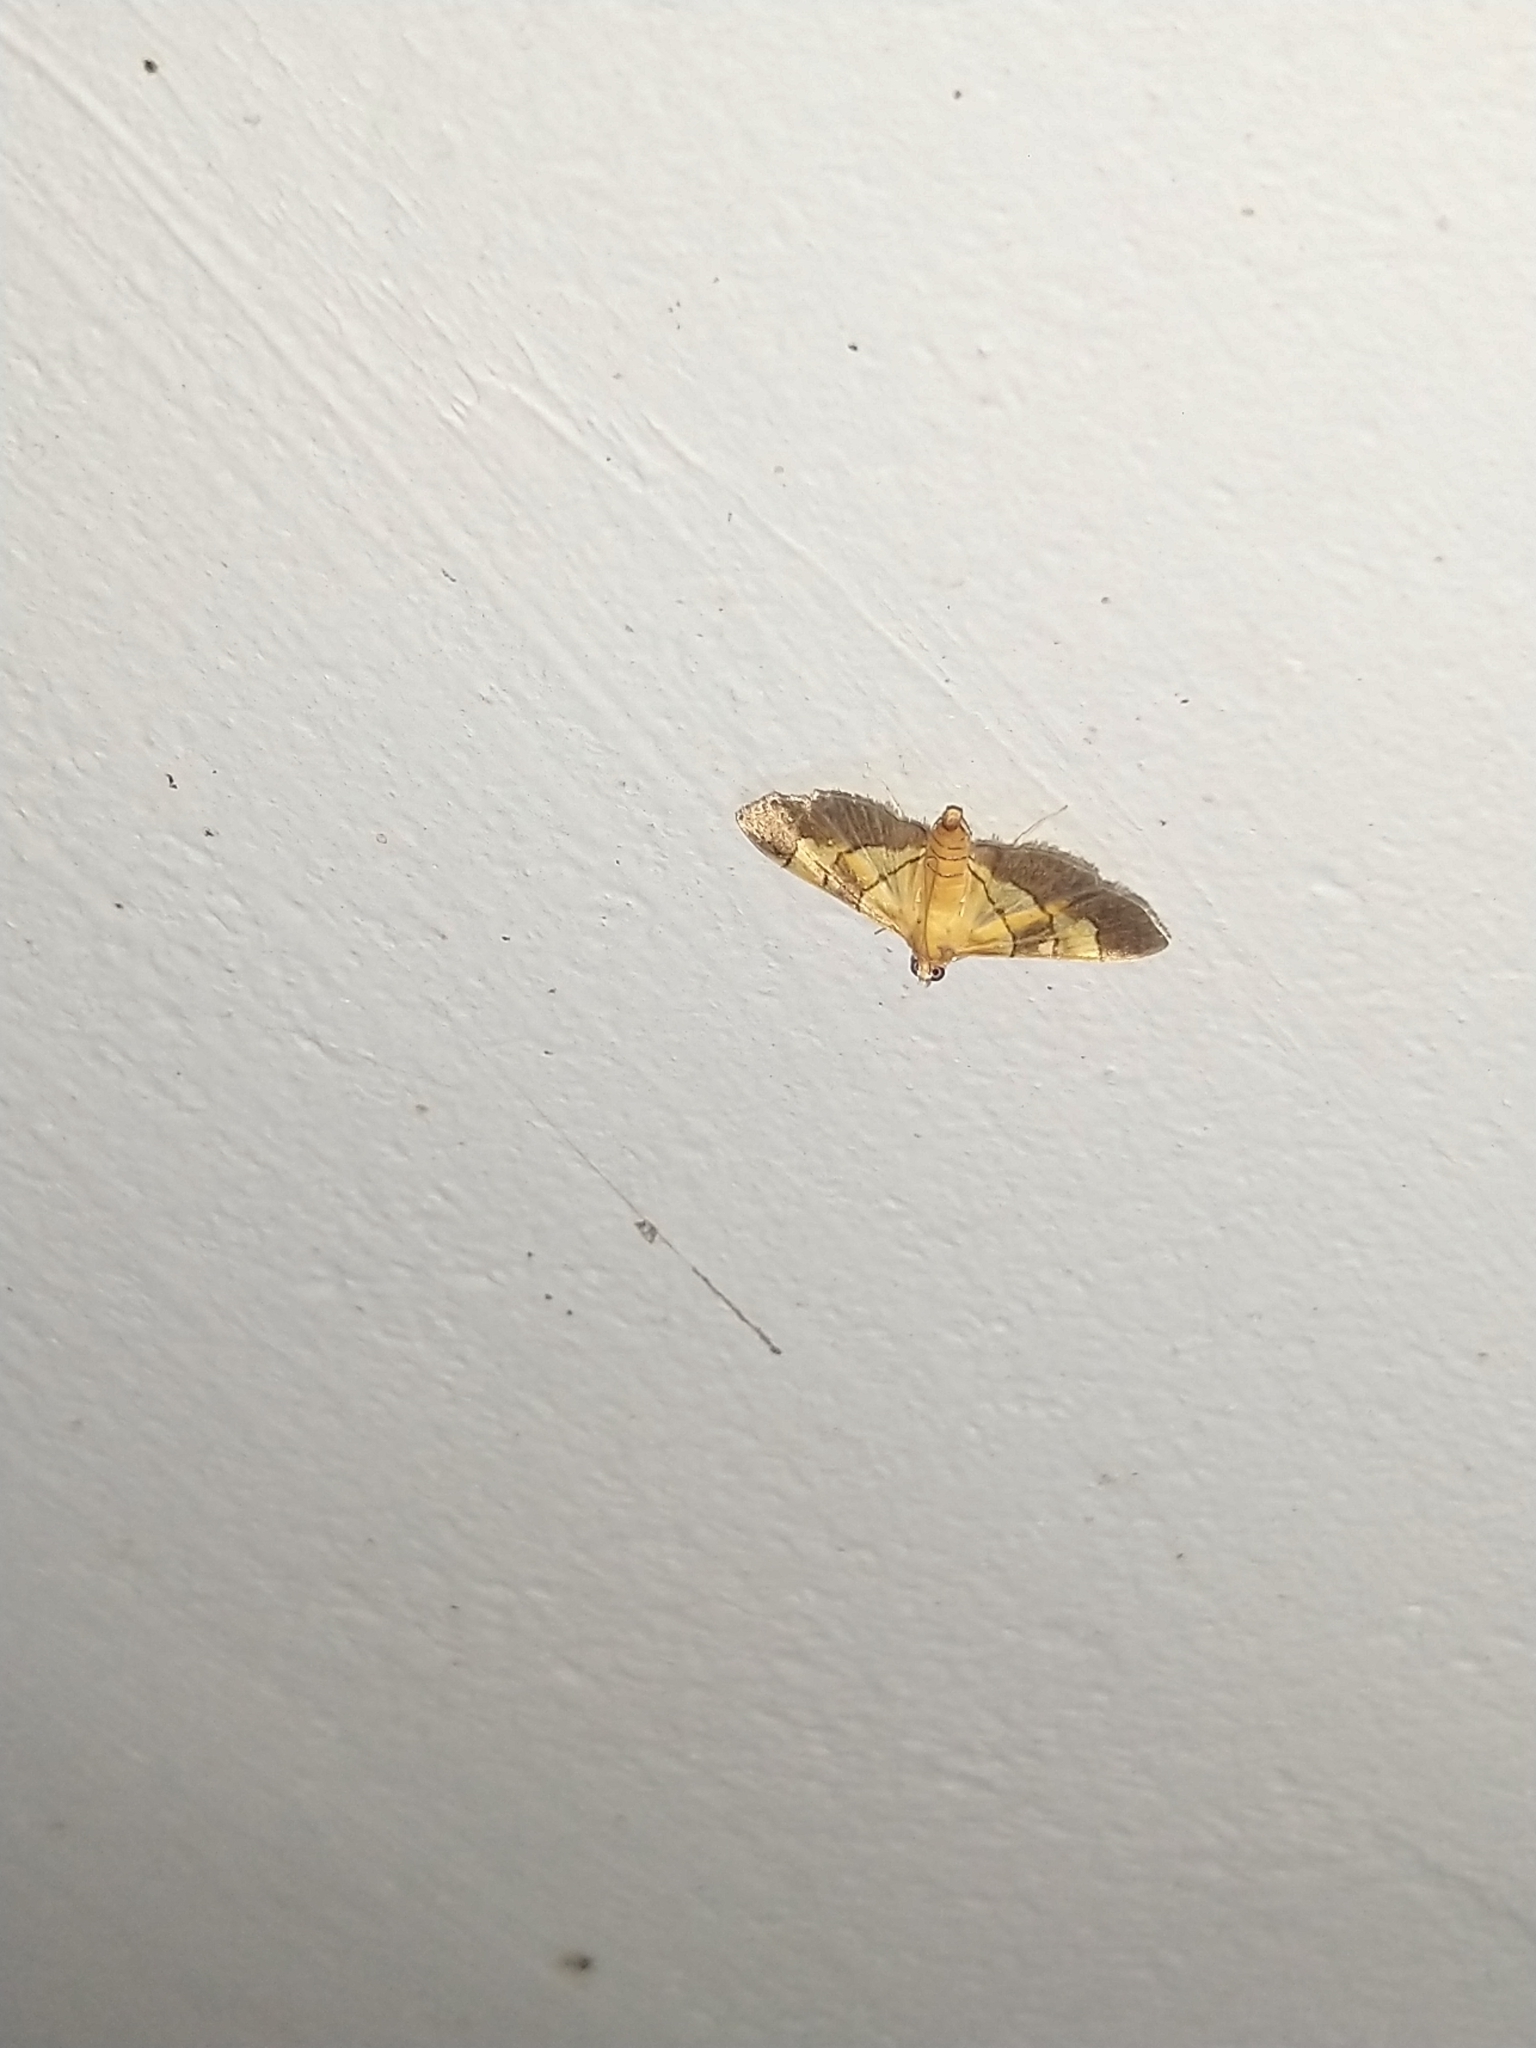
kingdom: Animalia
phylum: Arthropoda
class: Insecta
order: Lepidoptera
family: Crambidae
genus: Syngamia
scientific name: Syngamia latimarginalis
